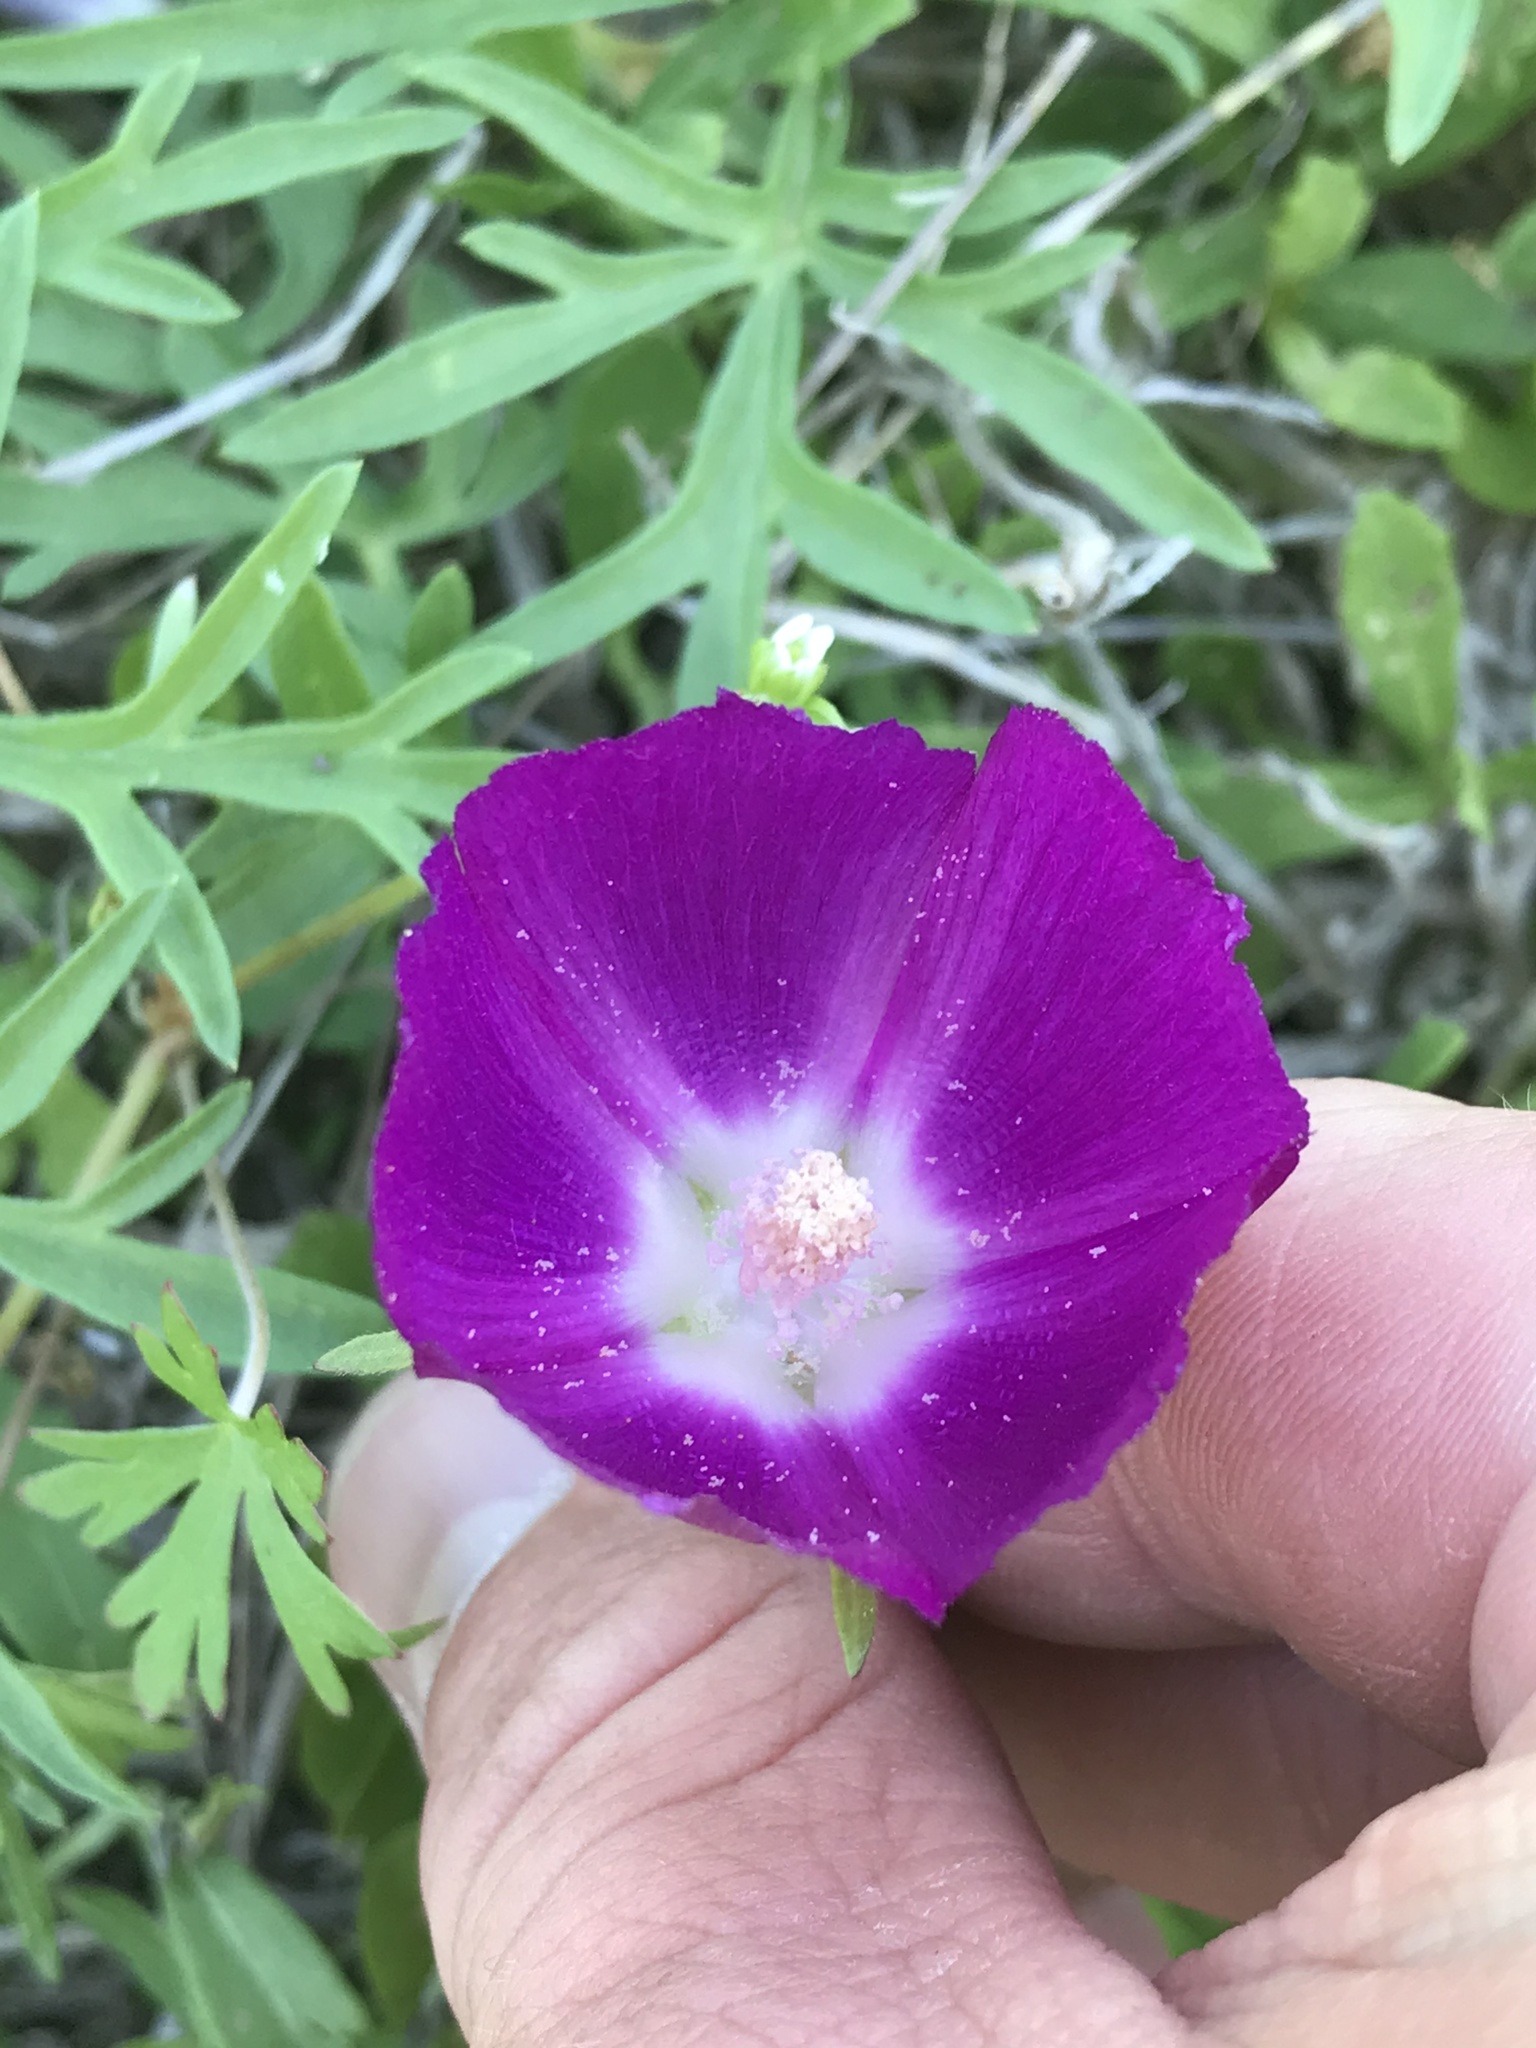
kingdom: Plantae
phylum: Tracheophyta
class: Magnoliopsida
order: Malvales
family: Malvaceae
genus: Callirhoe
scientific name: Callirhoe involucrata
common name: Purple poppy-mallow
